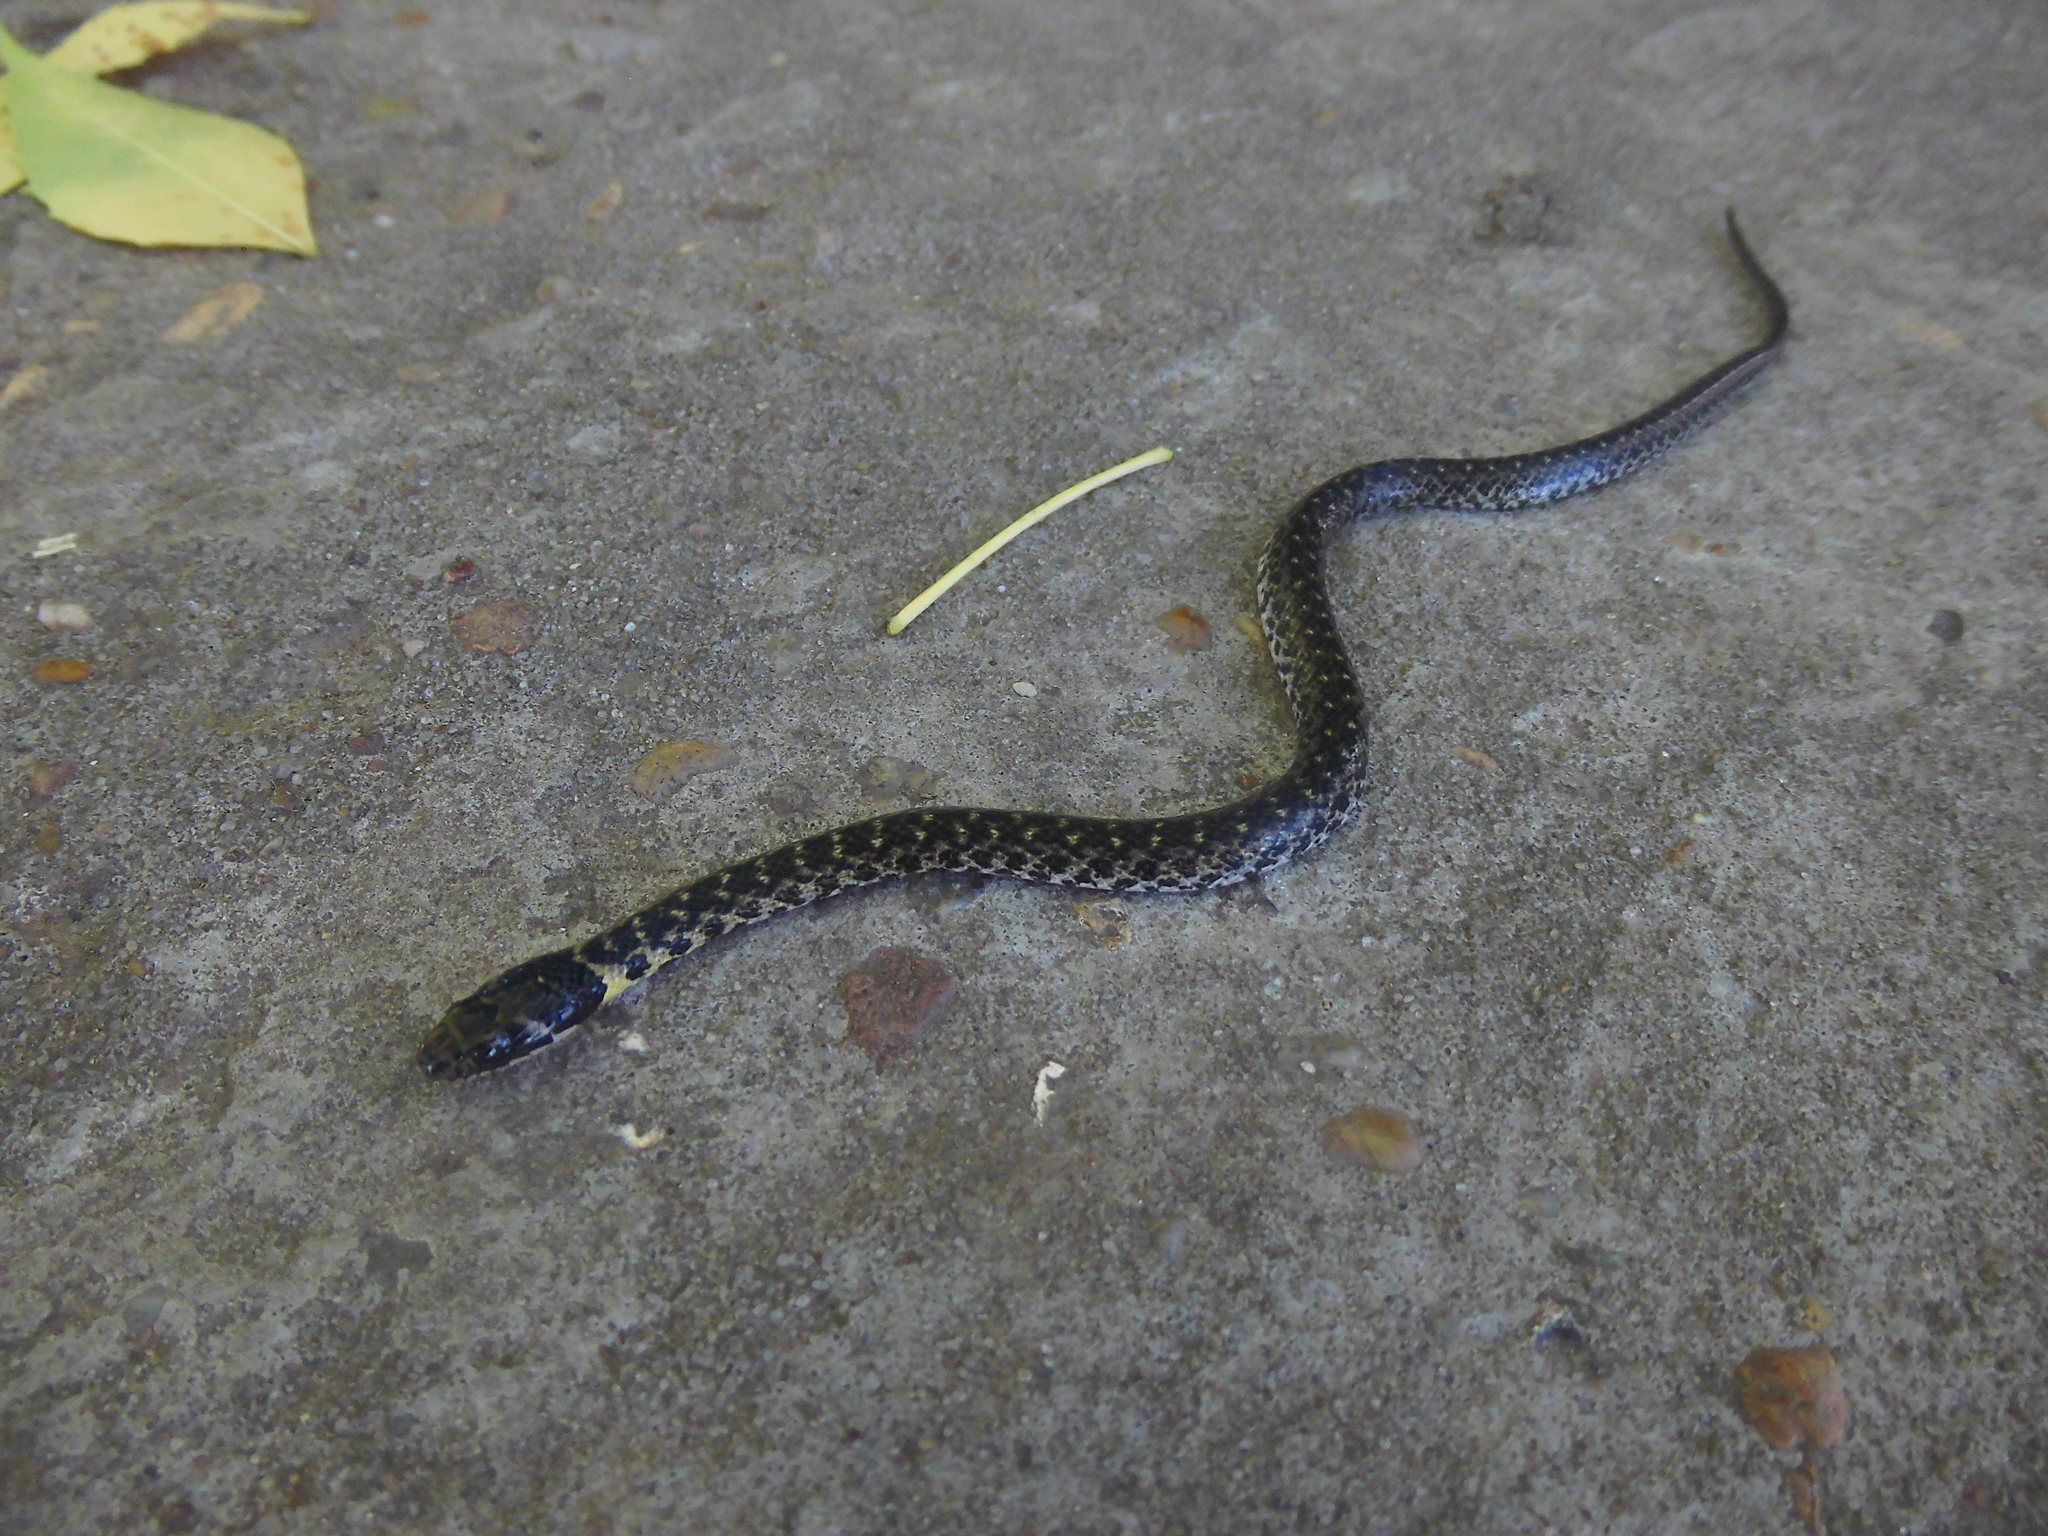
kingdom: Animalia
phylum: Chordata
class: Squamata
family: Colubridae
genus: Erythrolamprus
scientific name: Erythrolamprus poecilogyrus
